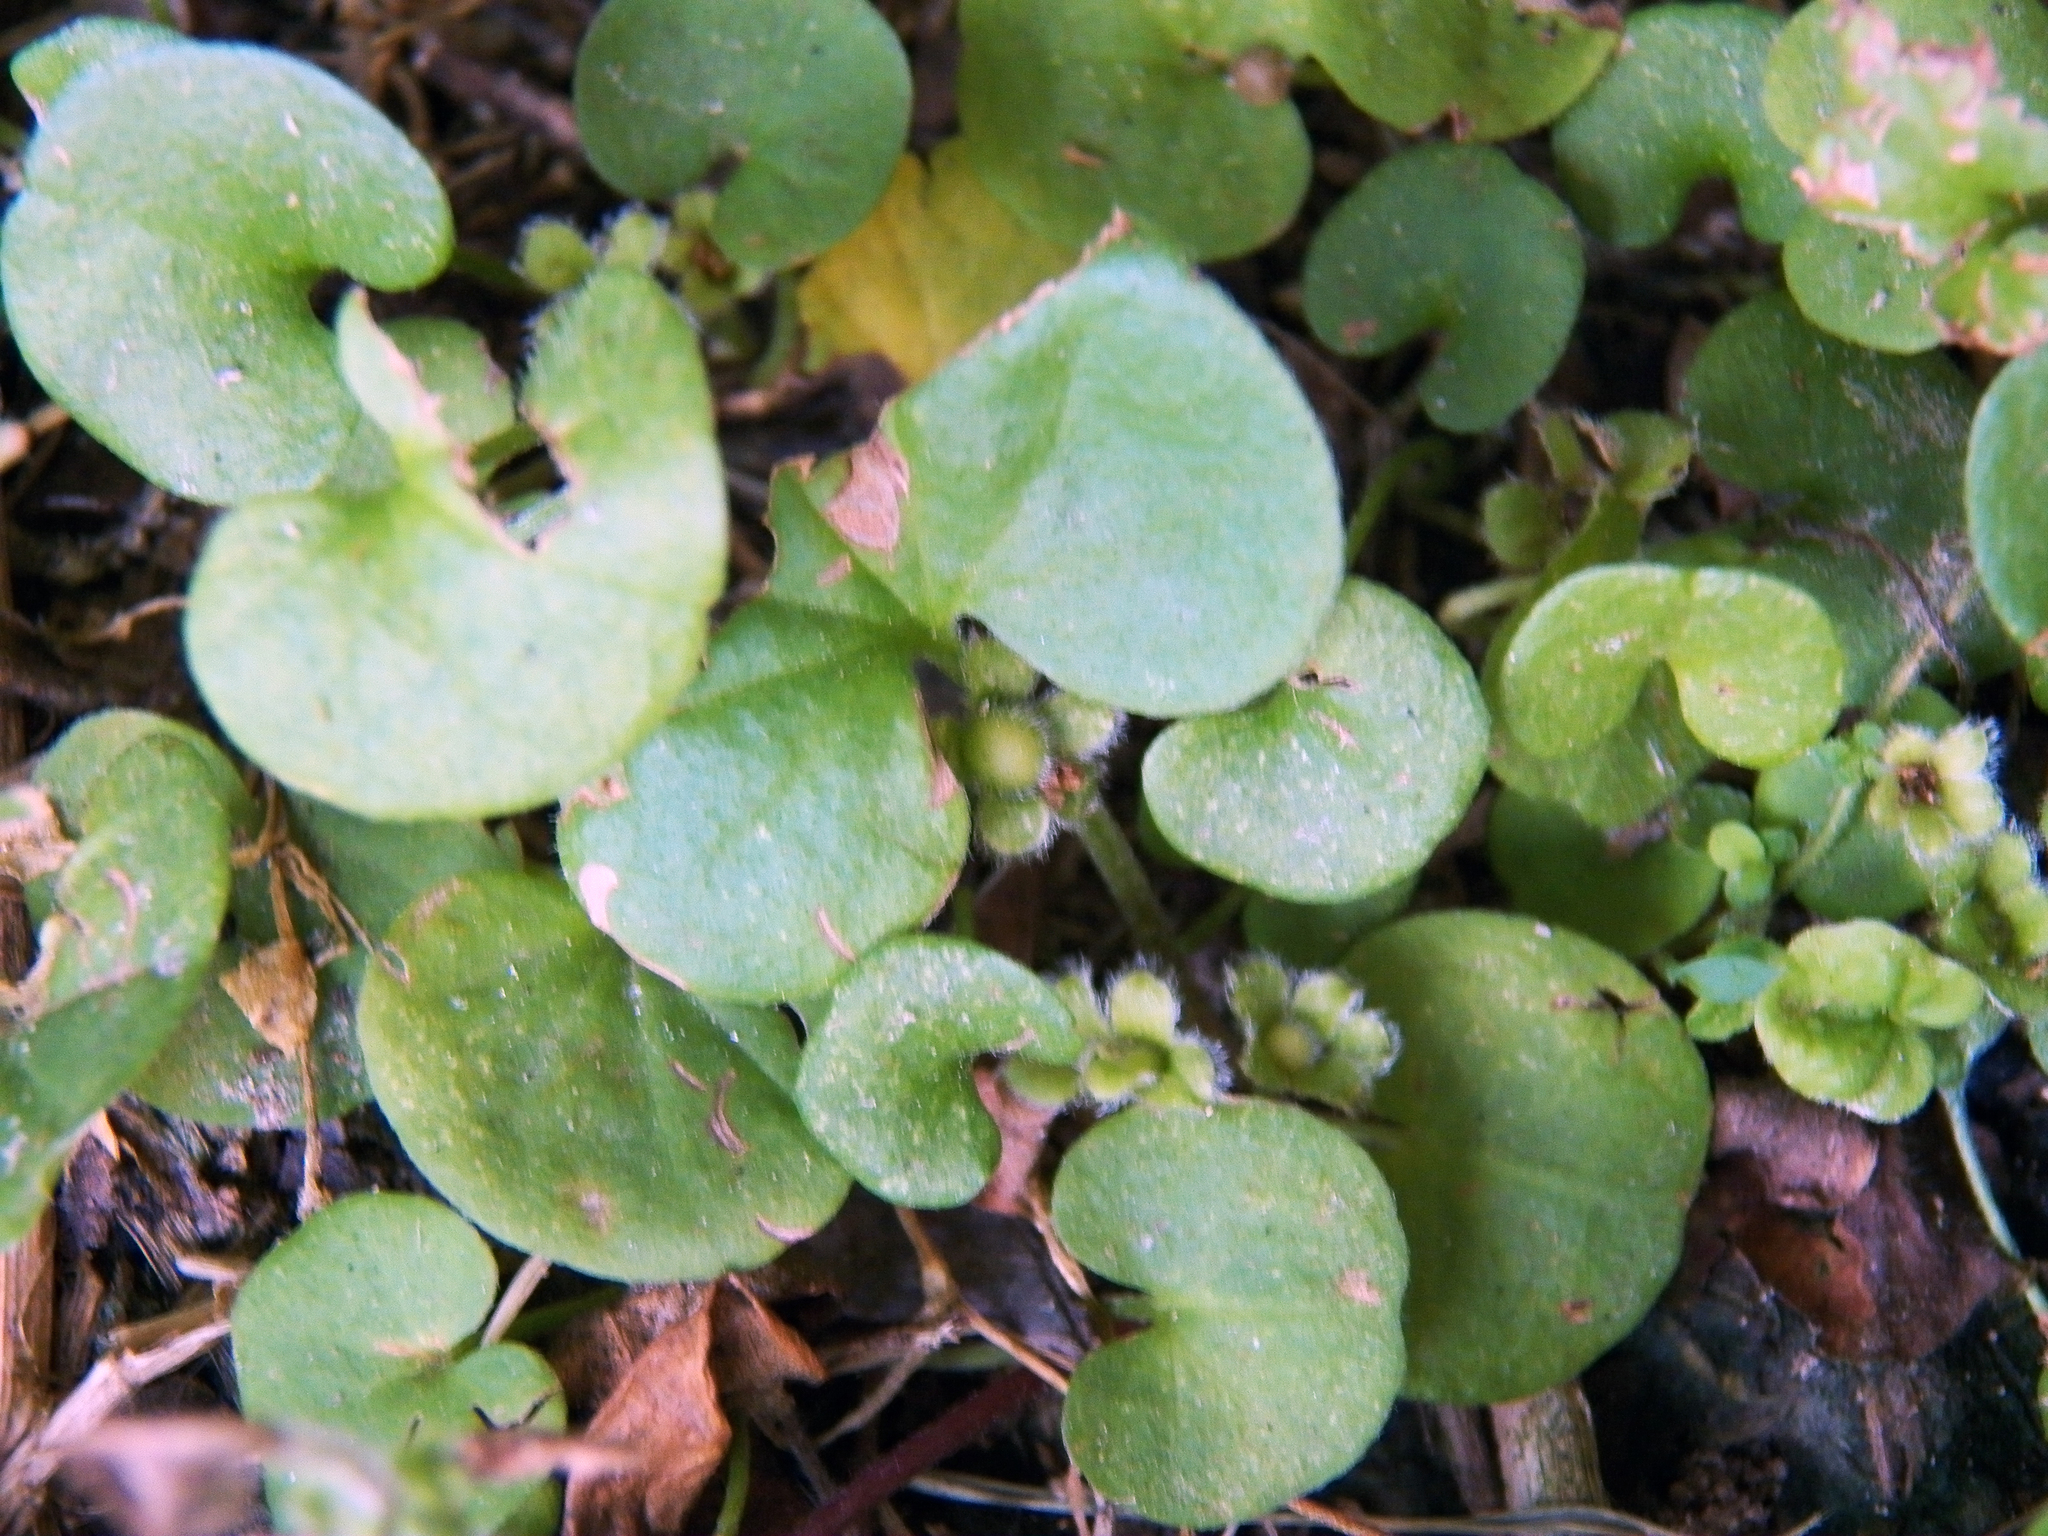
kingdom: Plantae
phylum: Tracheophyta
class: Magnoliopsida
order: Solanales
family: Convolvulaceae
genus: Dichondra
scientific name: Dichondra carolinensis
